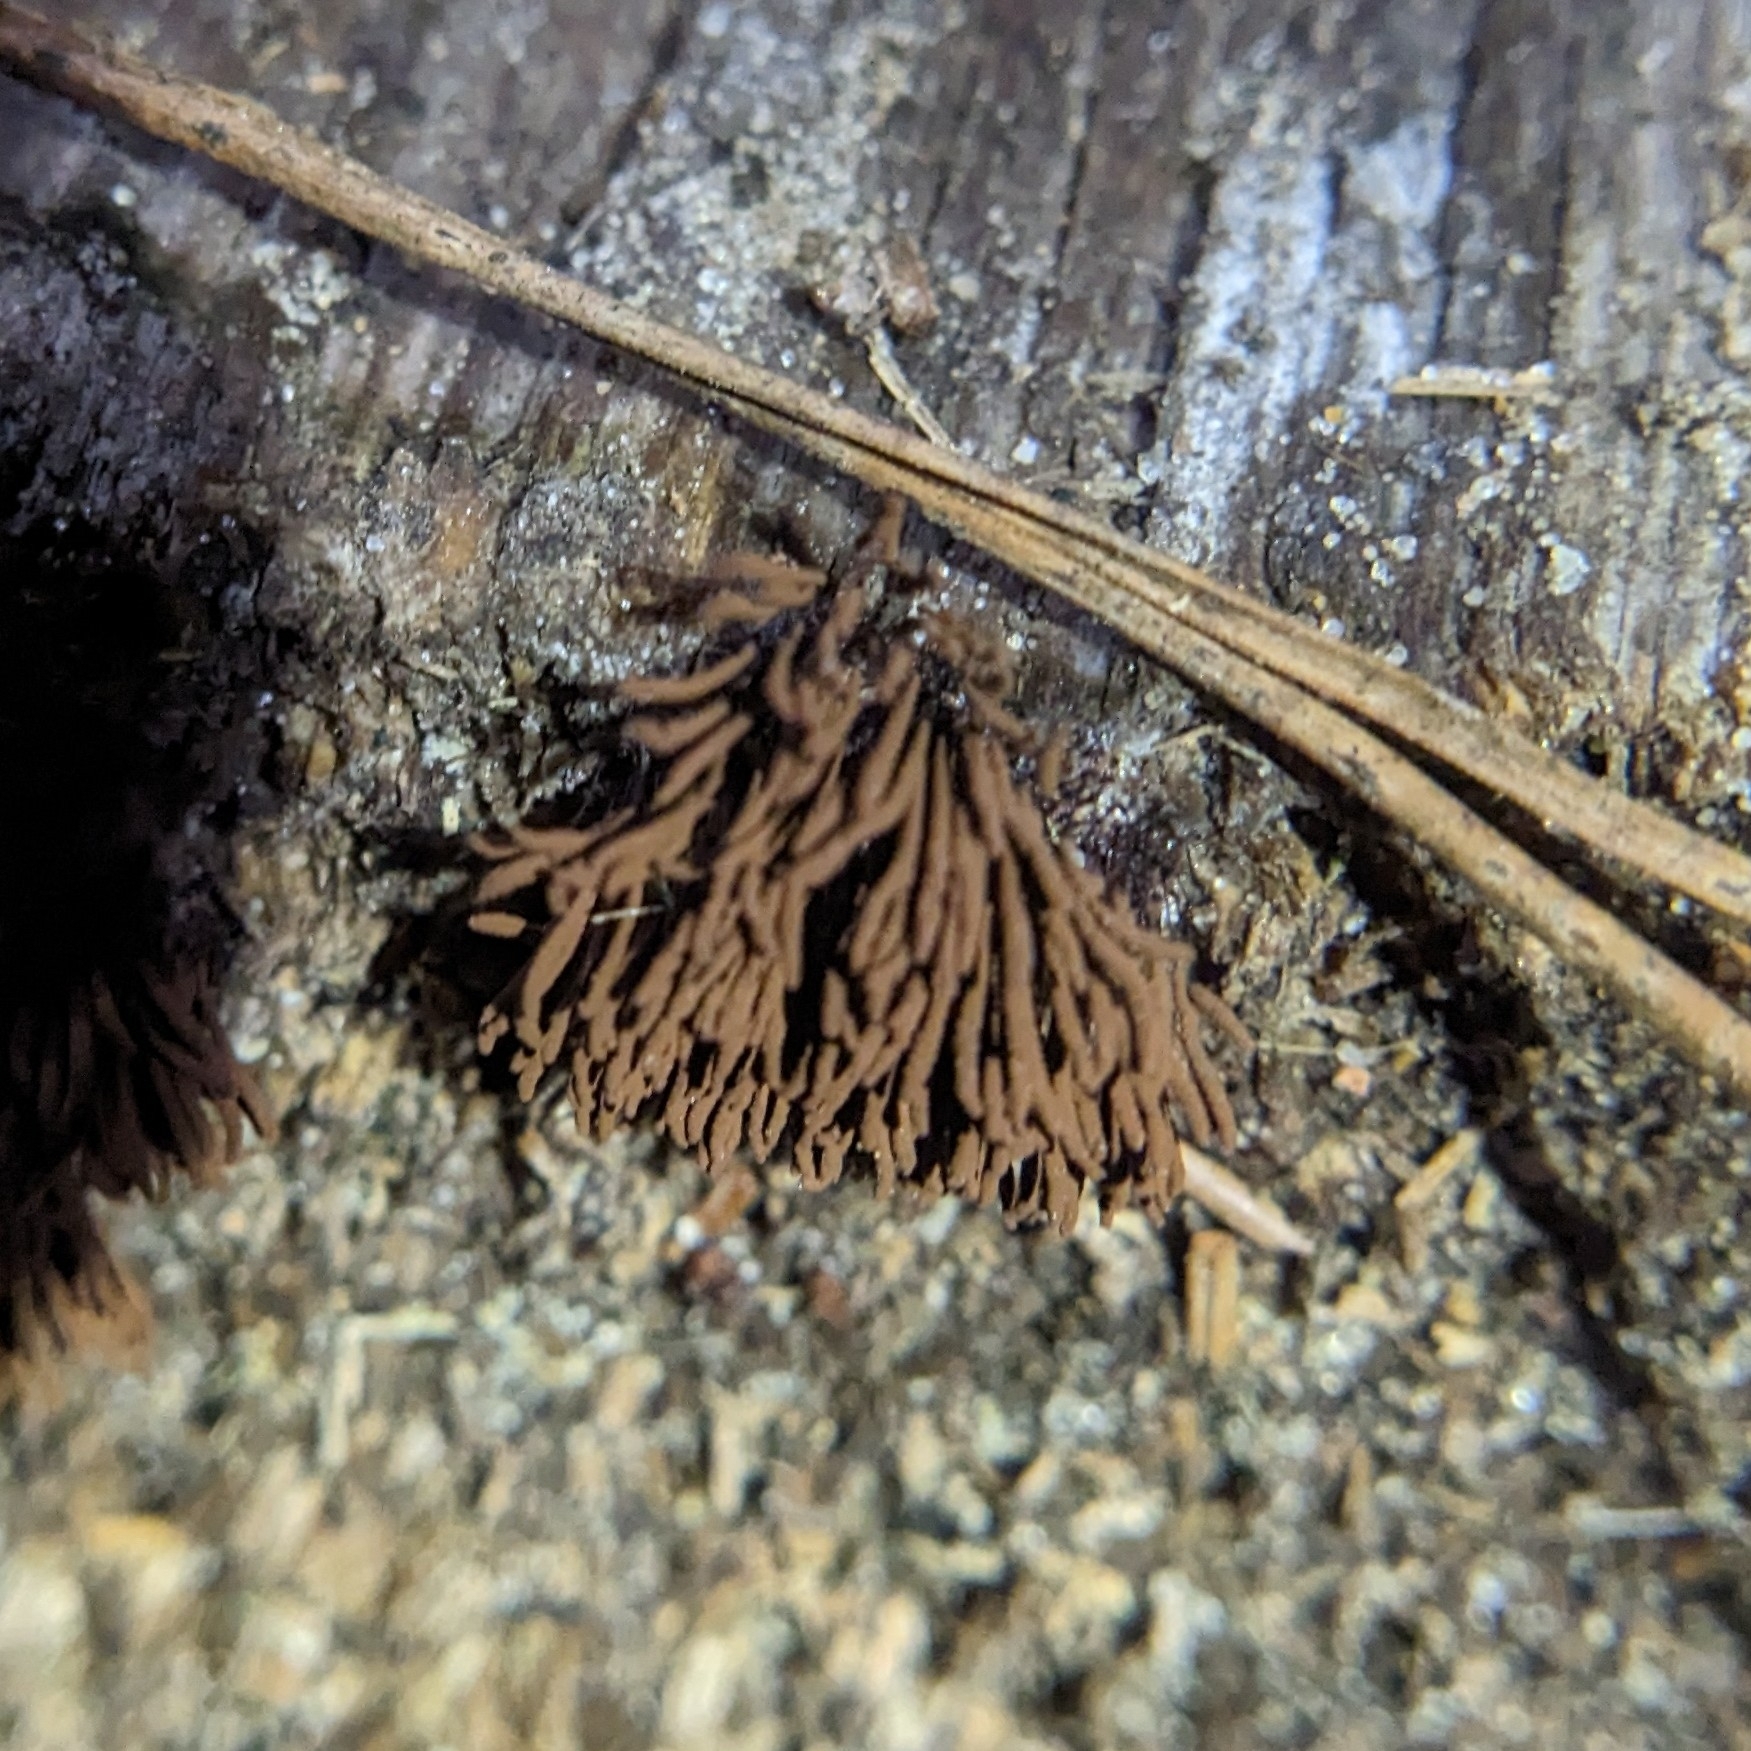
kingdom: Protozoa
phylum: Mycetozoa
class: Myxomycetes
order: Stemonitidales
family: Stemonitidaceae
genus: Stemonitis
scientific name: Stemonitis splendens
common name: Chocolate tube slime
